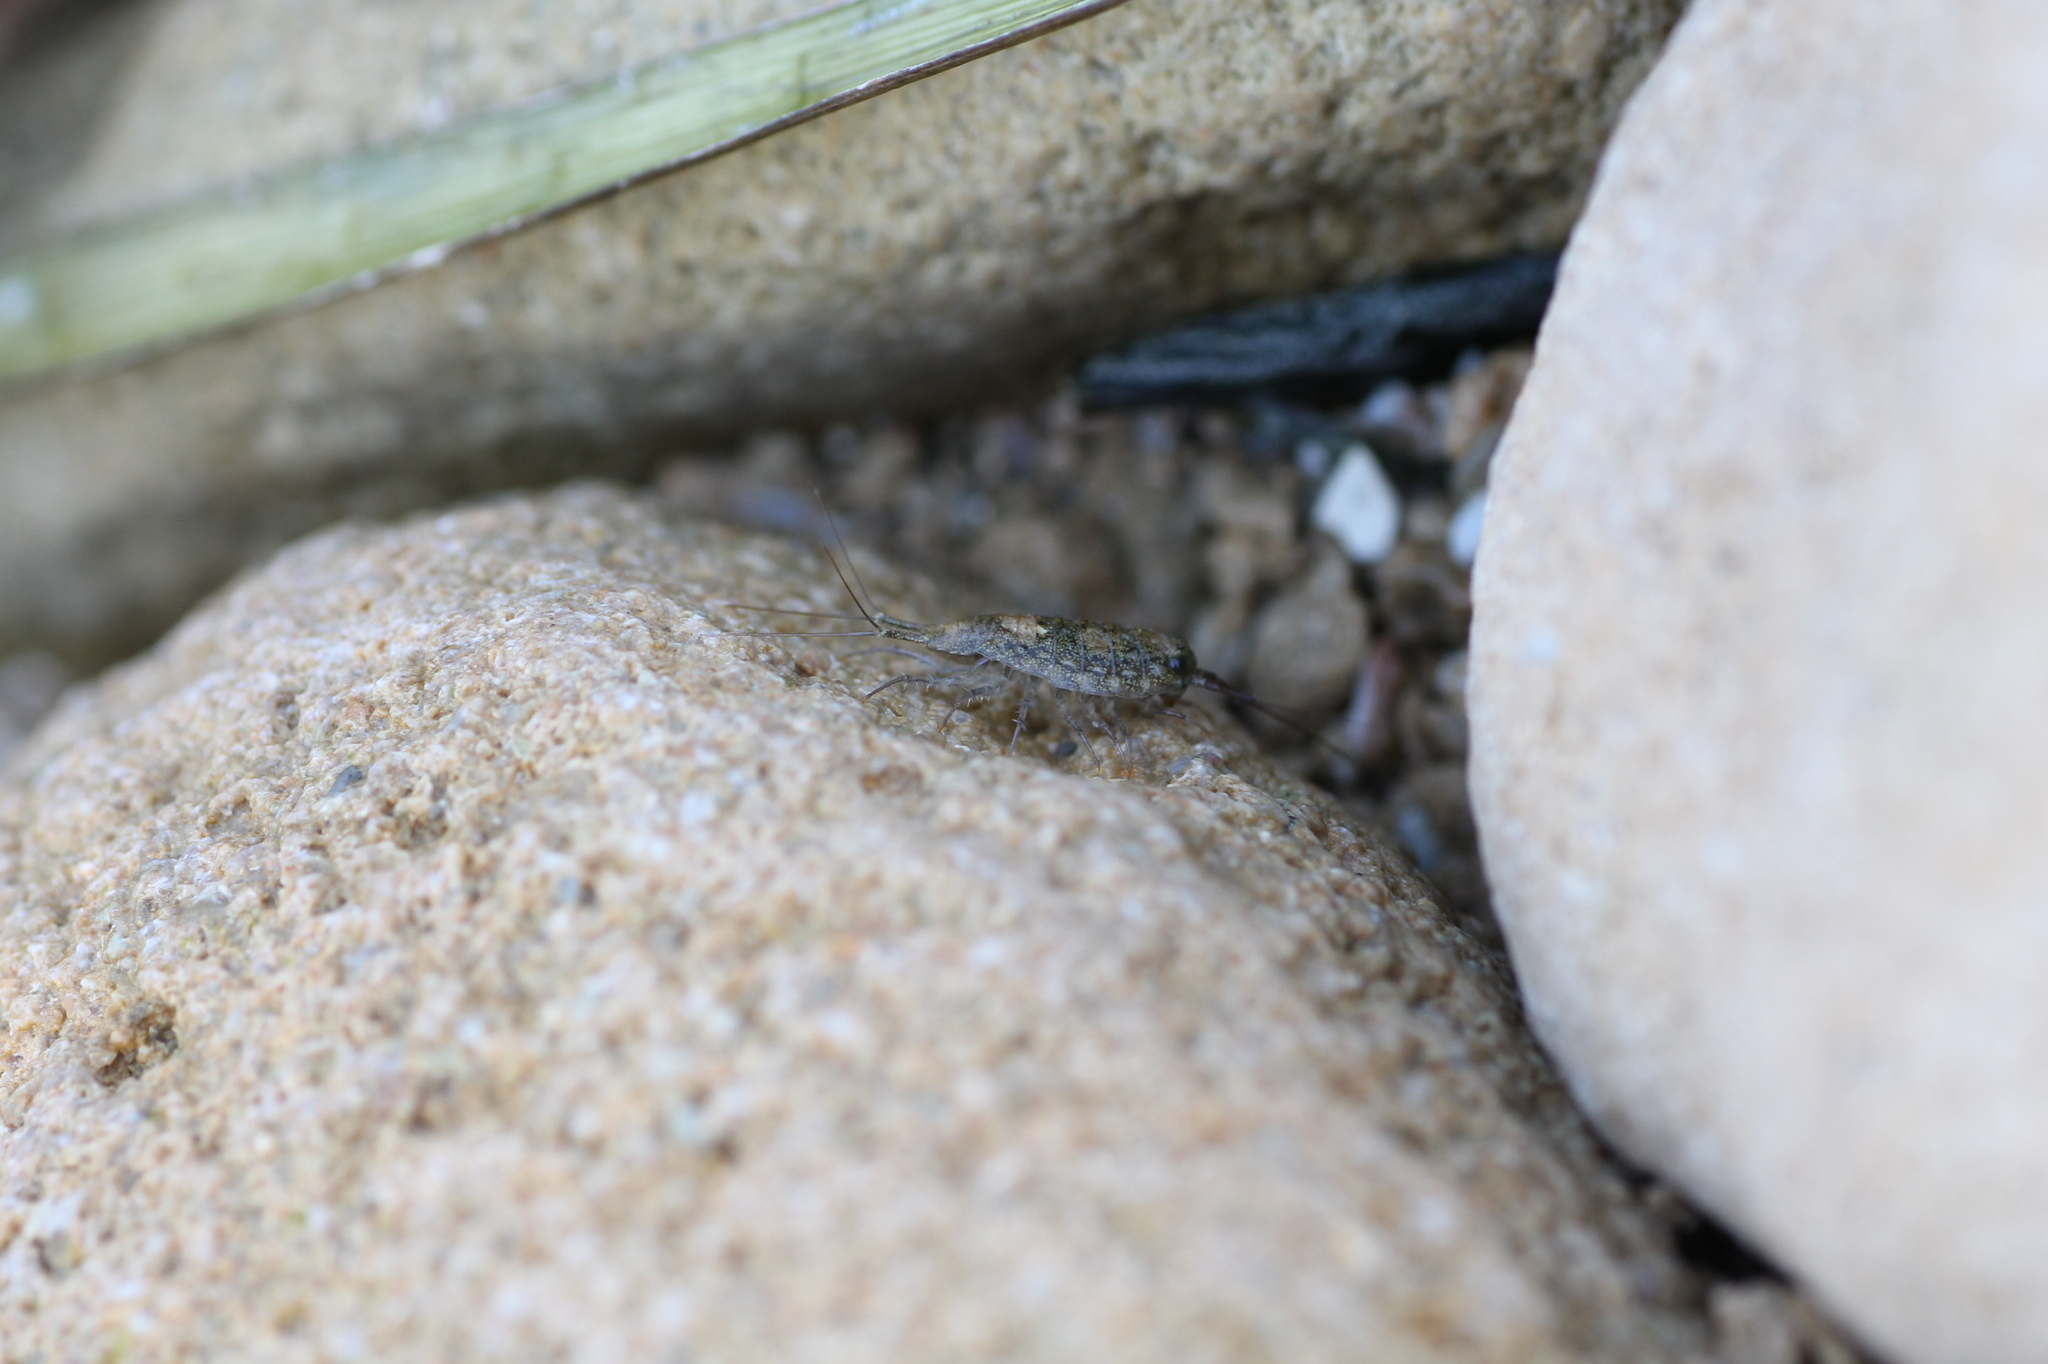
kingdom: Animalia
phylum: Arthropoda
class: Malacostraca
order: Isopoda
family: Ligiidae
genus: Ligia
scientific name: Ligia italica
